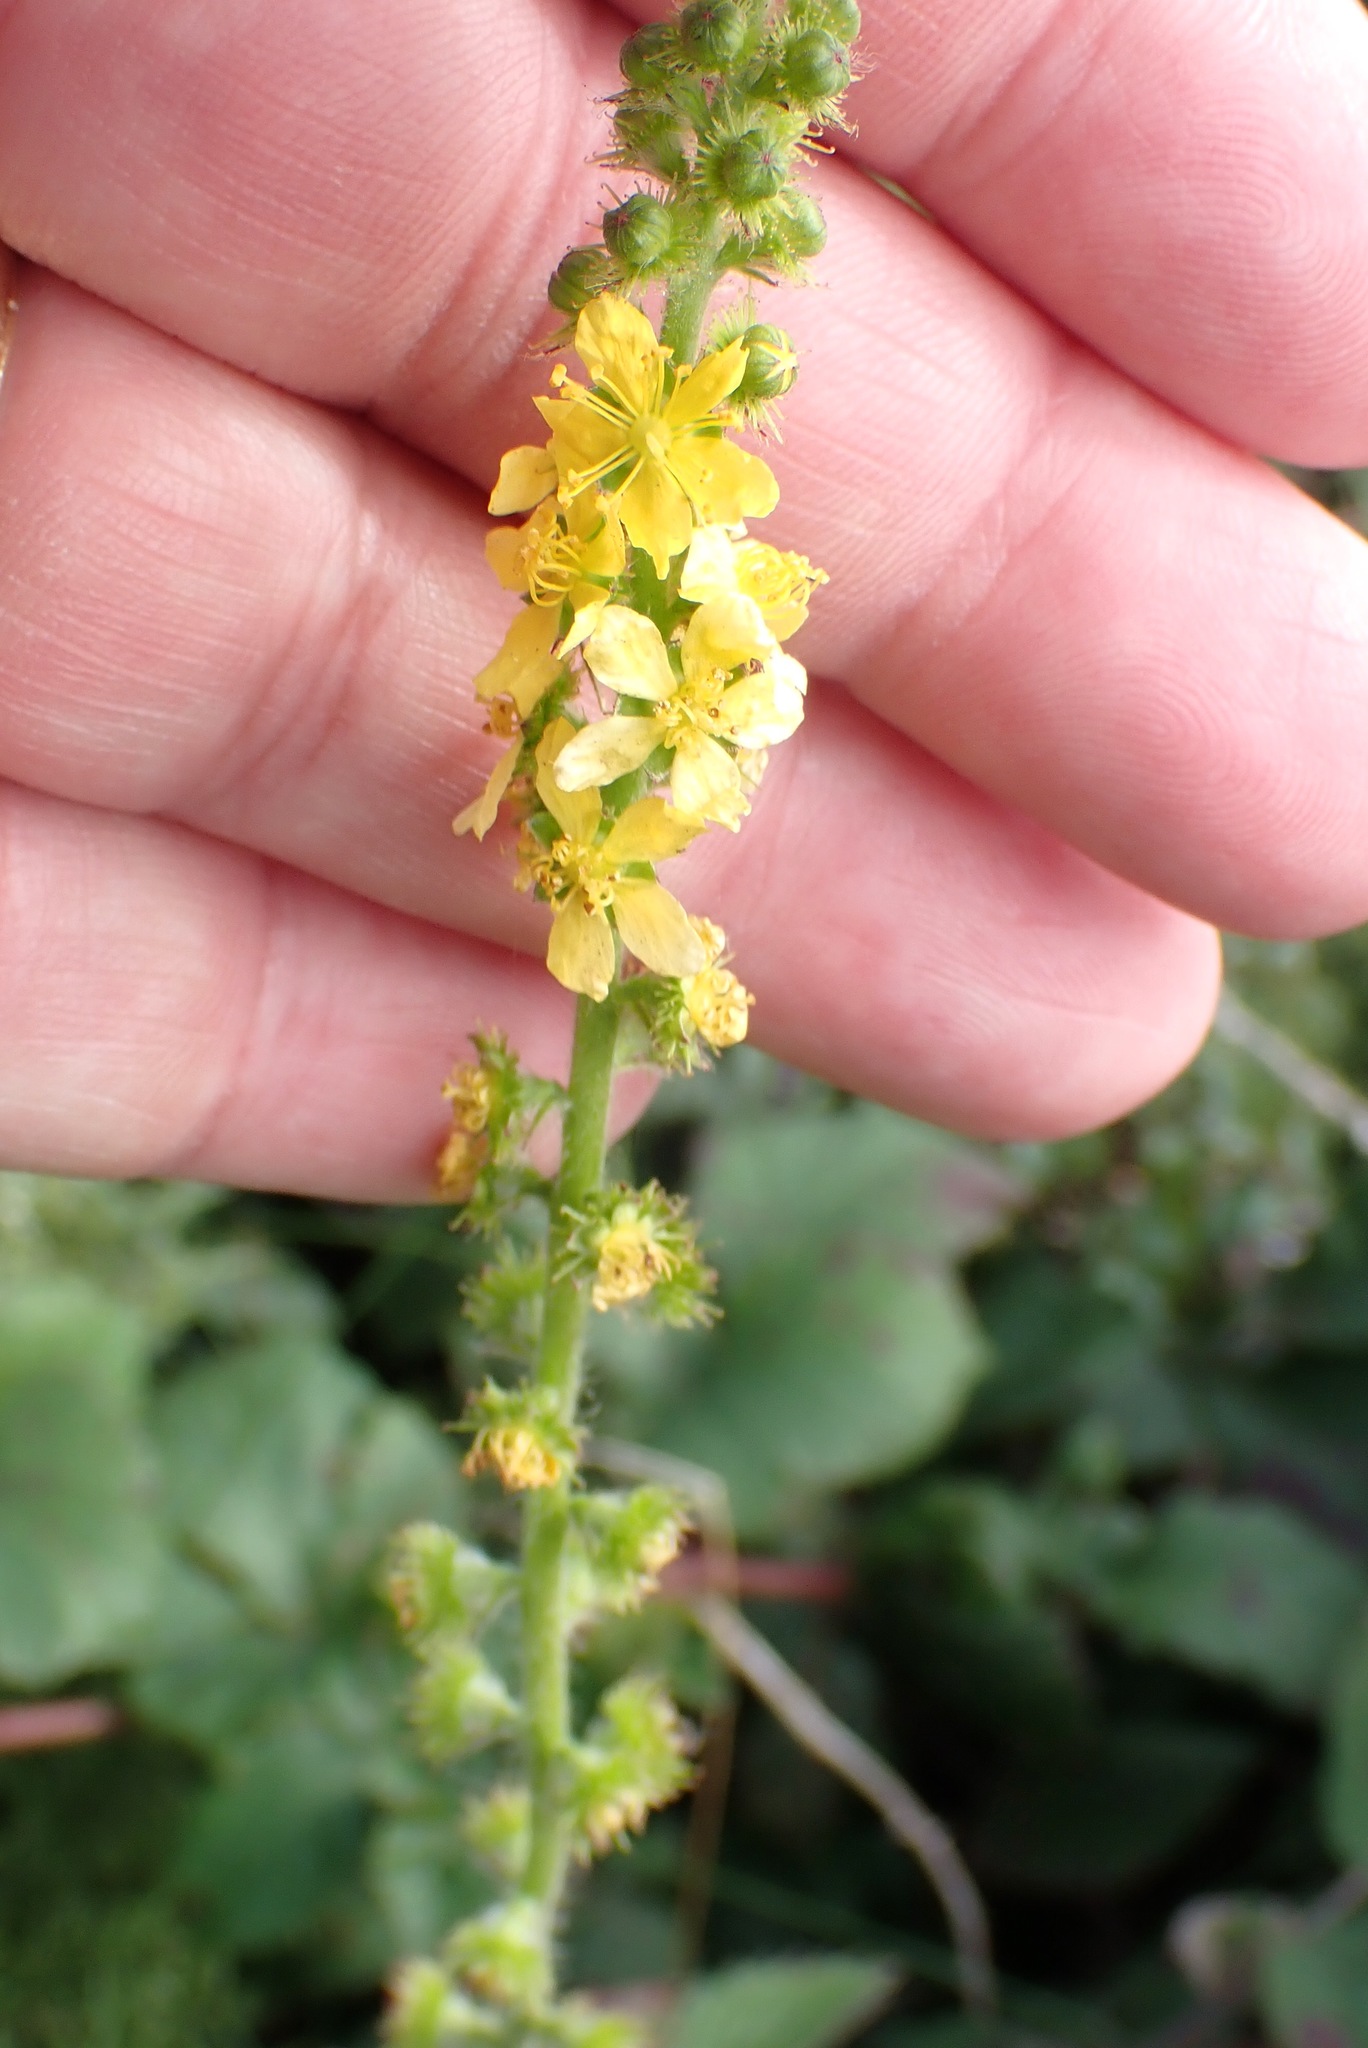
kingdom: Plantae
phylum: Tracheophyta
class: Magnoliopsida
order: Rosales
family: Rosaceae
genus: Agrimonia
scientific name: Agrimonia eupatoria
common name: Agrimony
